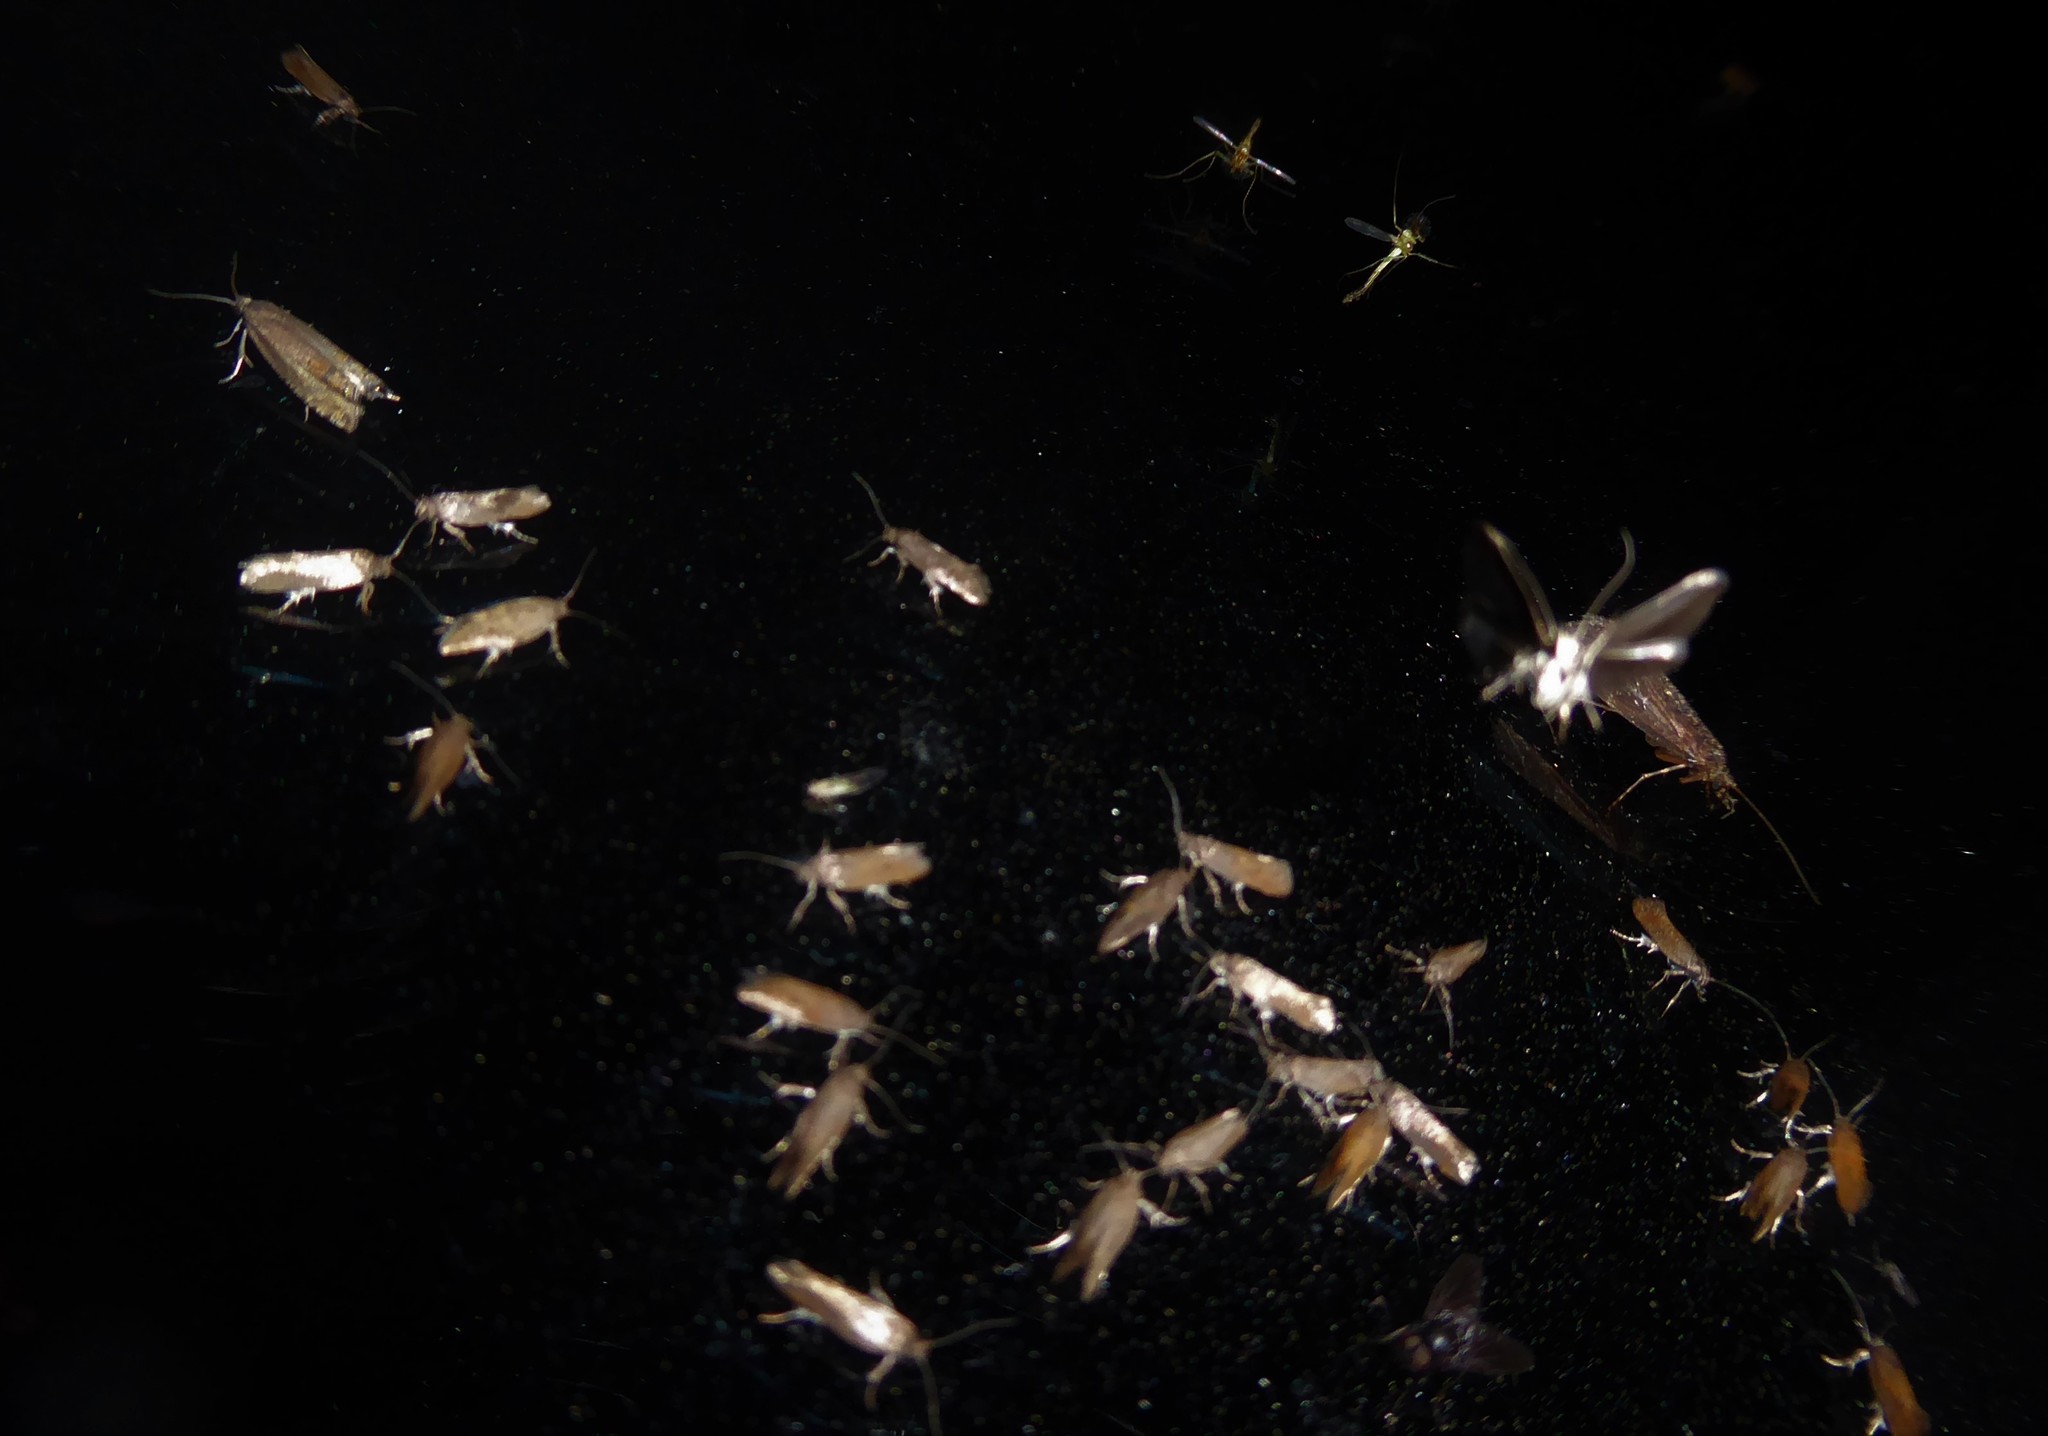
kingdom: Animalia
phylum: Arthropoda
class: Insecta
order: Lepidoptera
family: Tortricidae
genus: Cydia
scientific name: Cydia succedana
